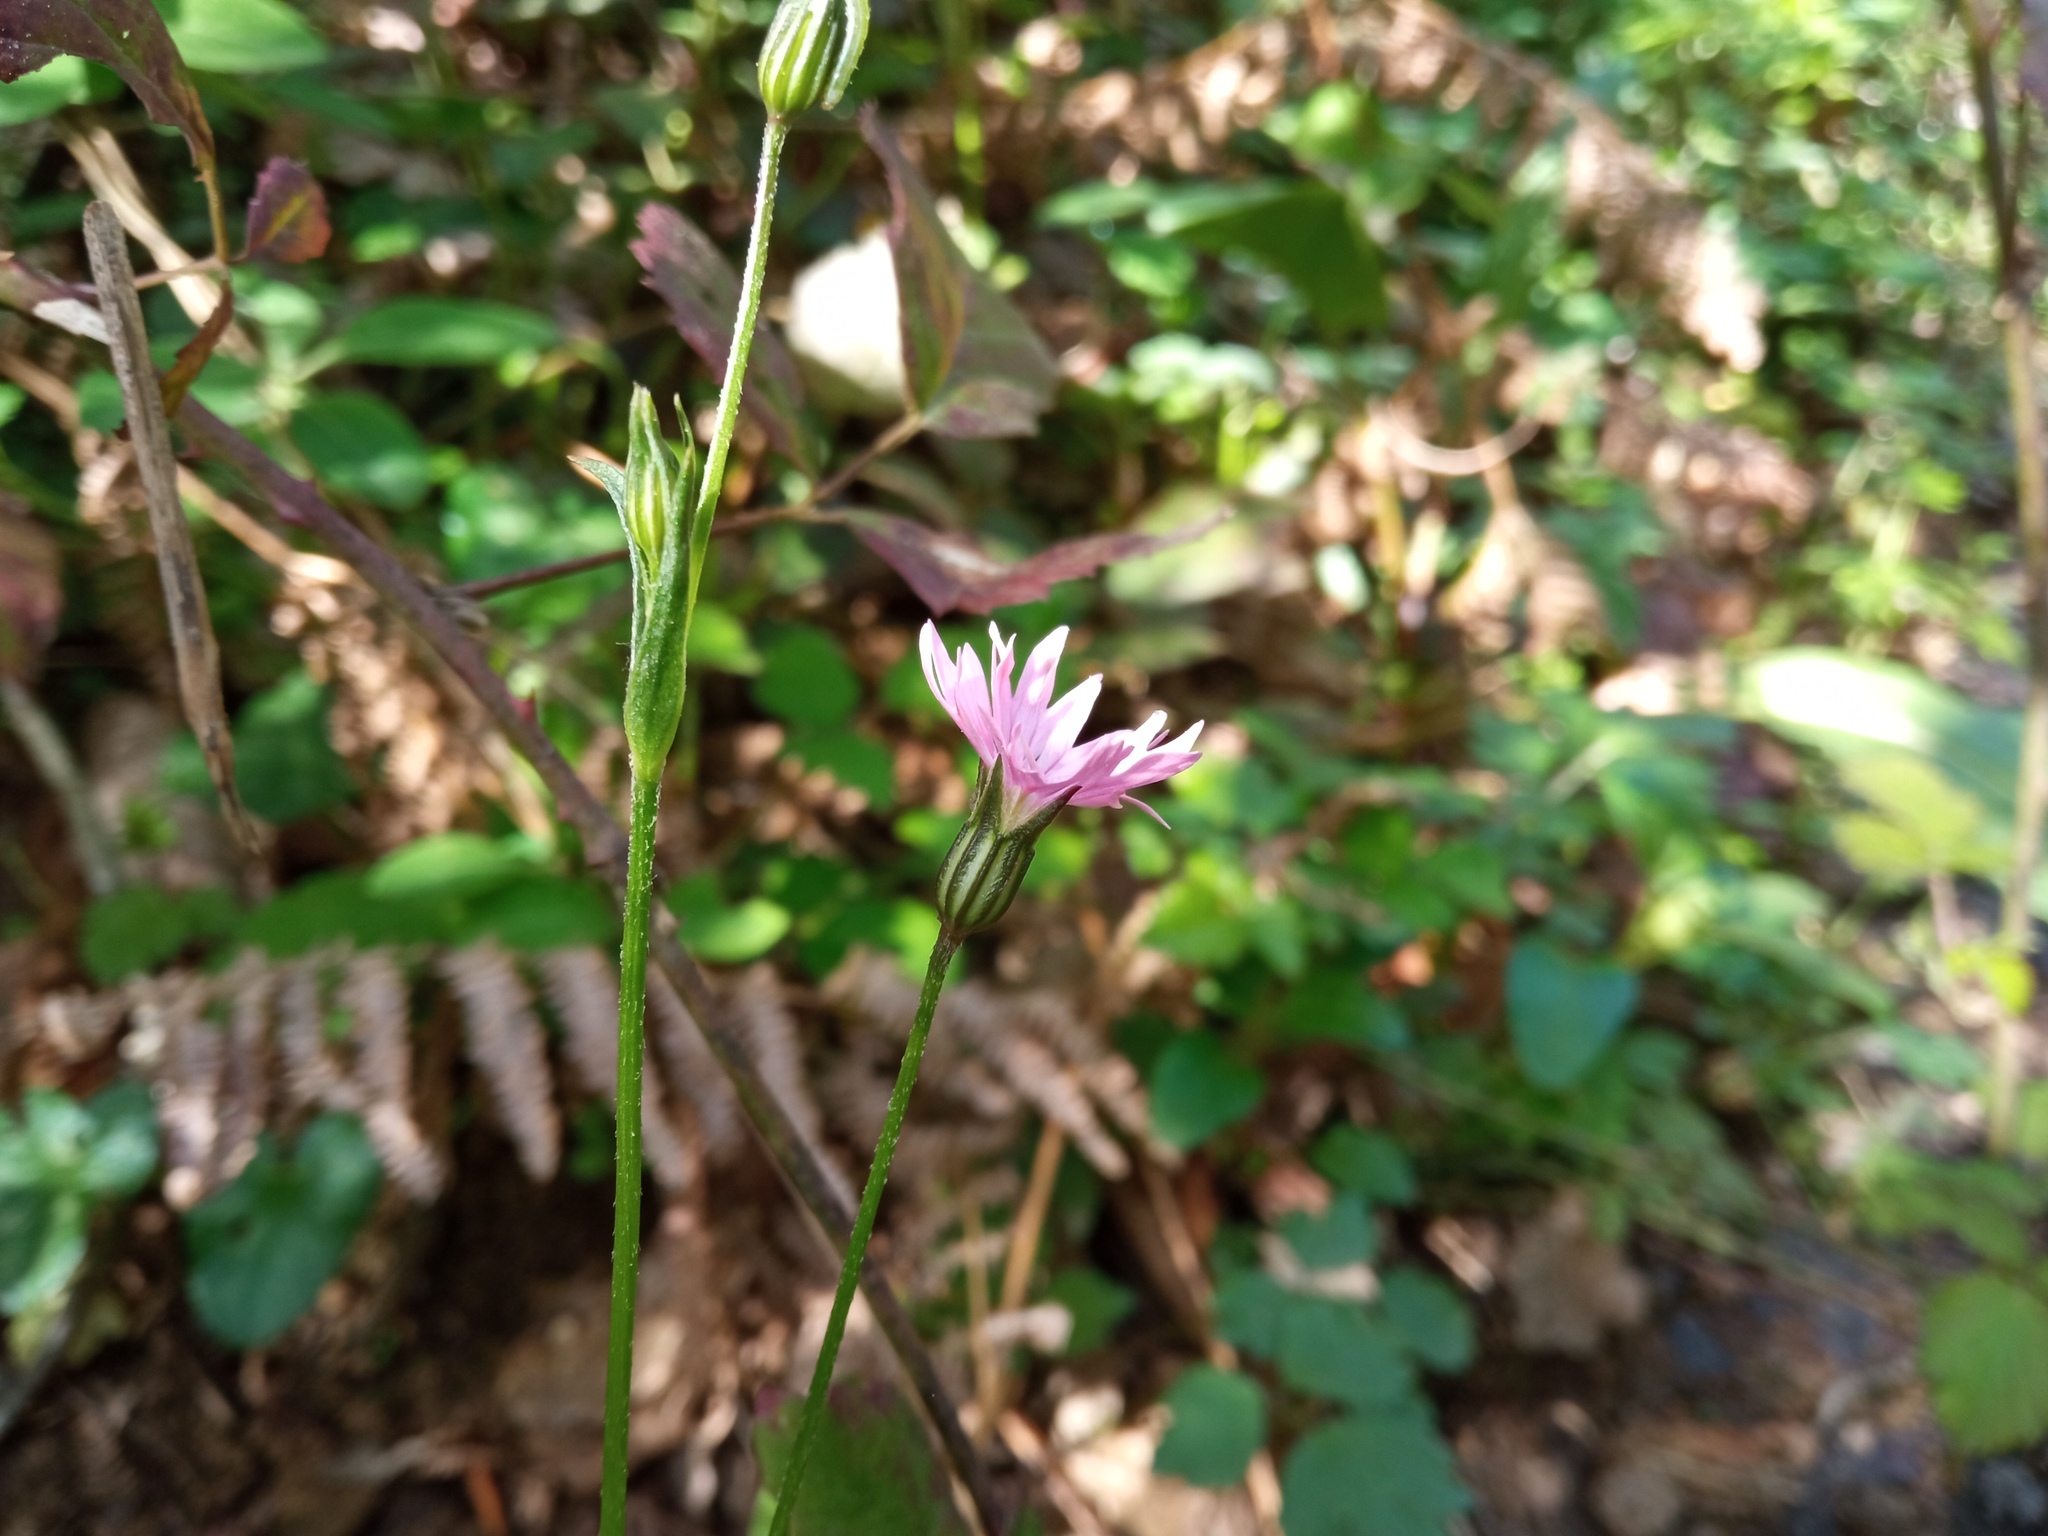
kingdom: Plantae
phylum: Tracheophyta
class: Magnoliopsida
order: Caryophyllales
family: Caryophyllaceae
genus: Silene
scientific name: Silene flos-cuculi
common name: Ragged-robin
